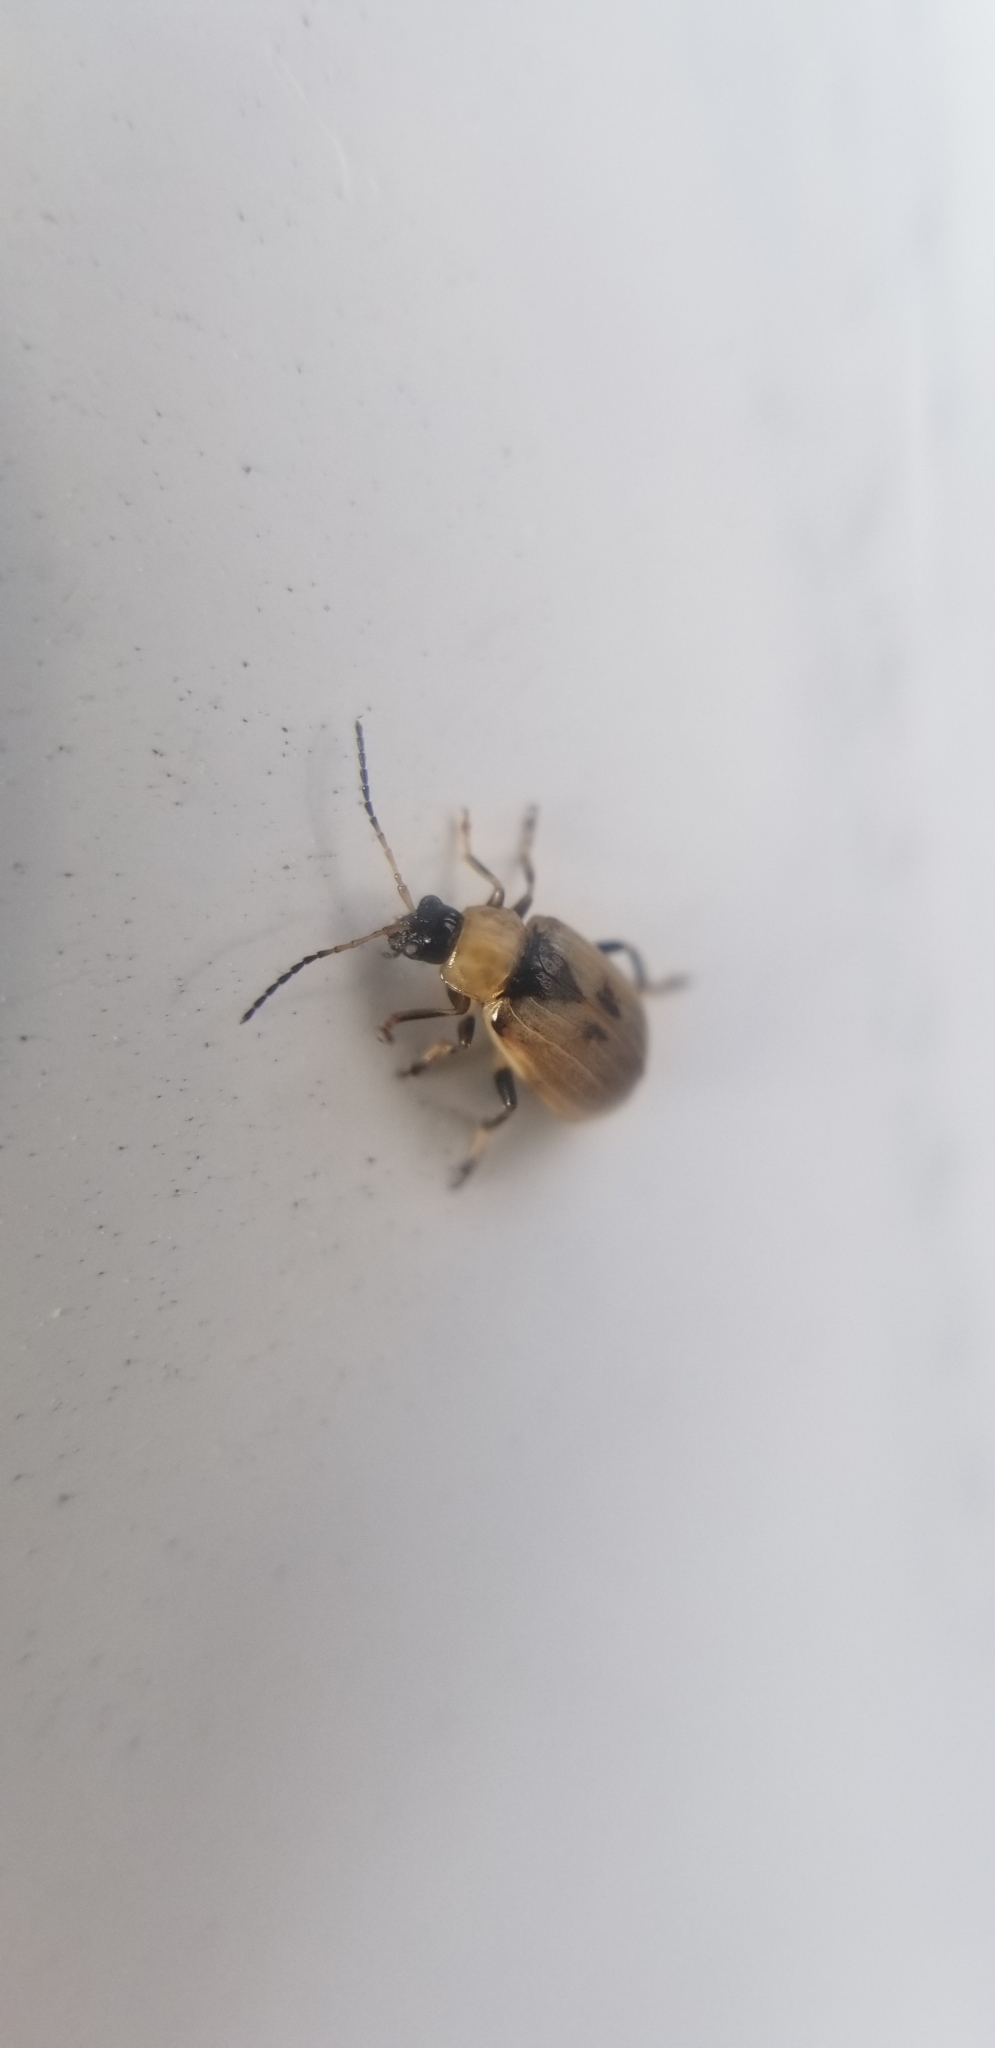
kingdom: Animalia
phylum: Arthropoda
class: Insecta
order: Coleoptera
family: Chrysomelidae
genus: Cerotoma
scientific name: Cerotoma trifurcata
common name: Bean leaf beetle
